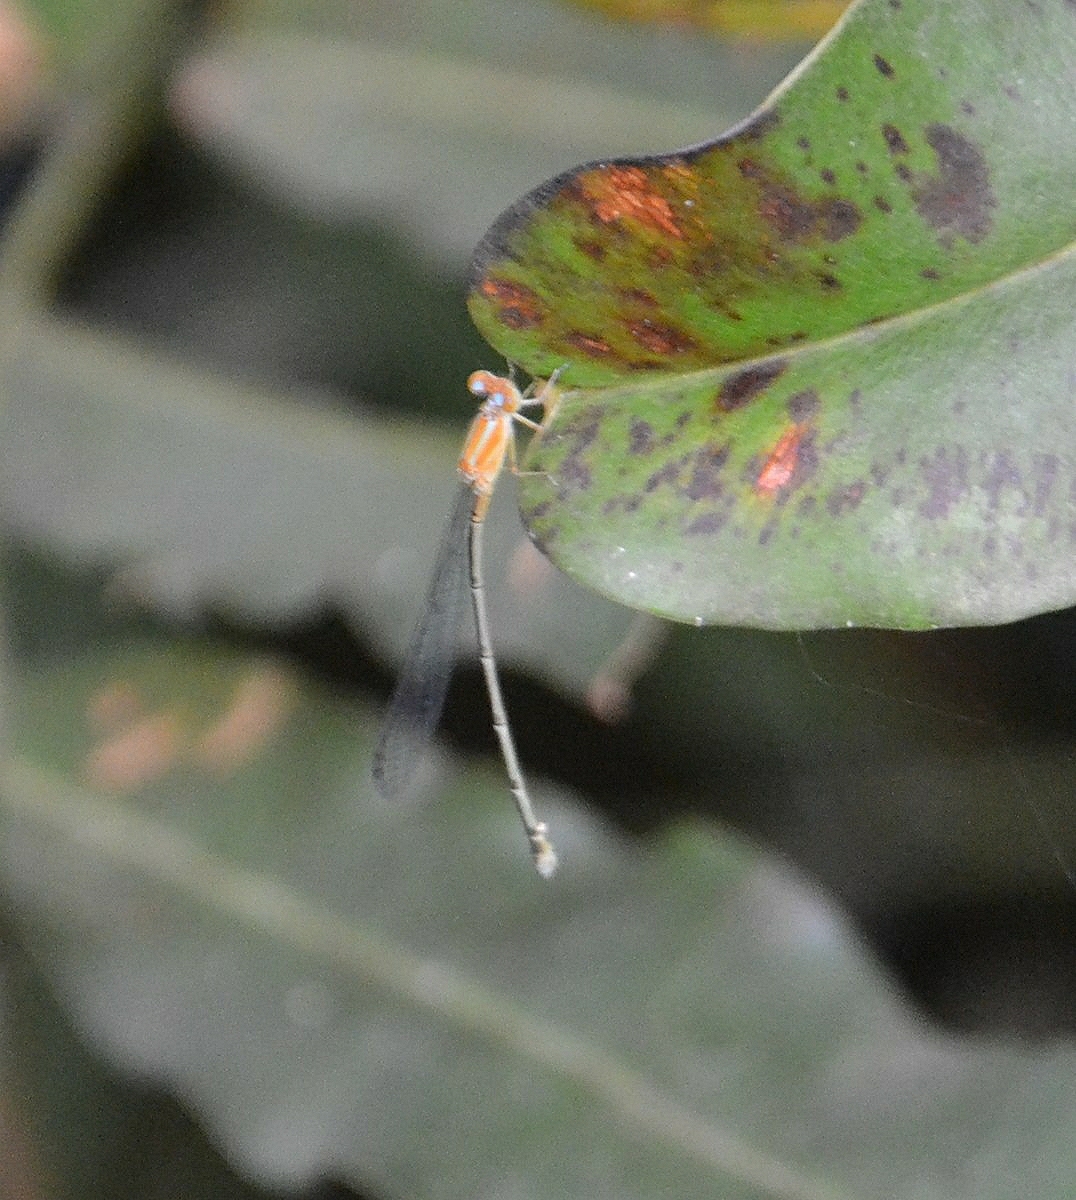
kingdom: Animalia
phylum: Arthropoda
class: Insecta
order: Odonata
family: Coenagrionidae
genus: Pseudagrion
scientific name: Pseudagrion microcephalum
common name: Blue riverdamsel
